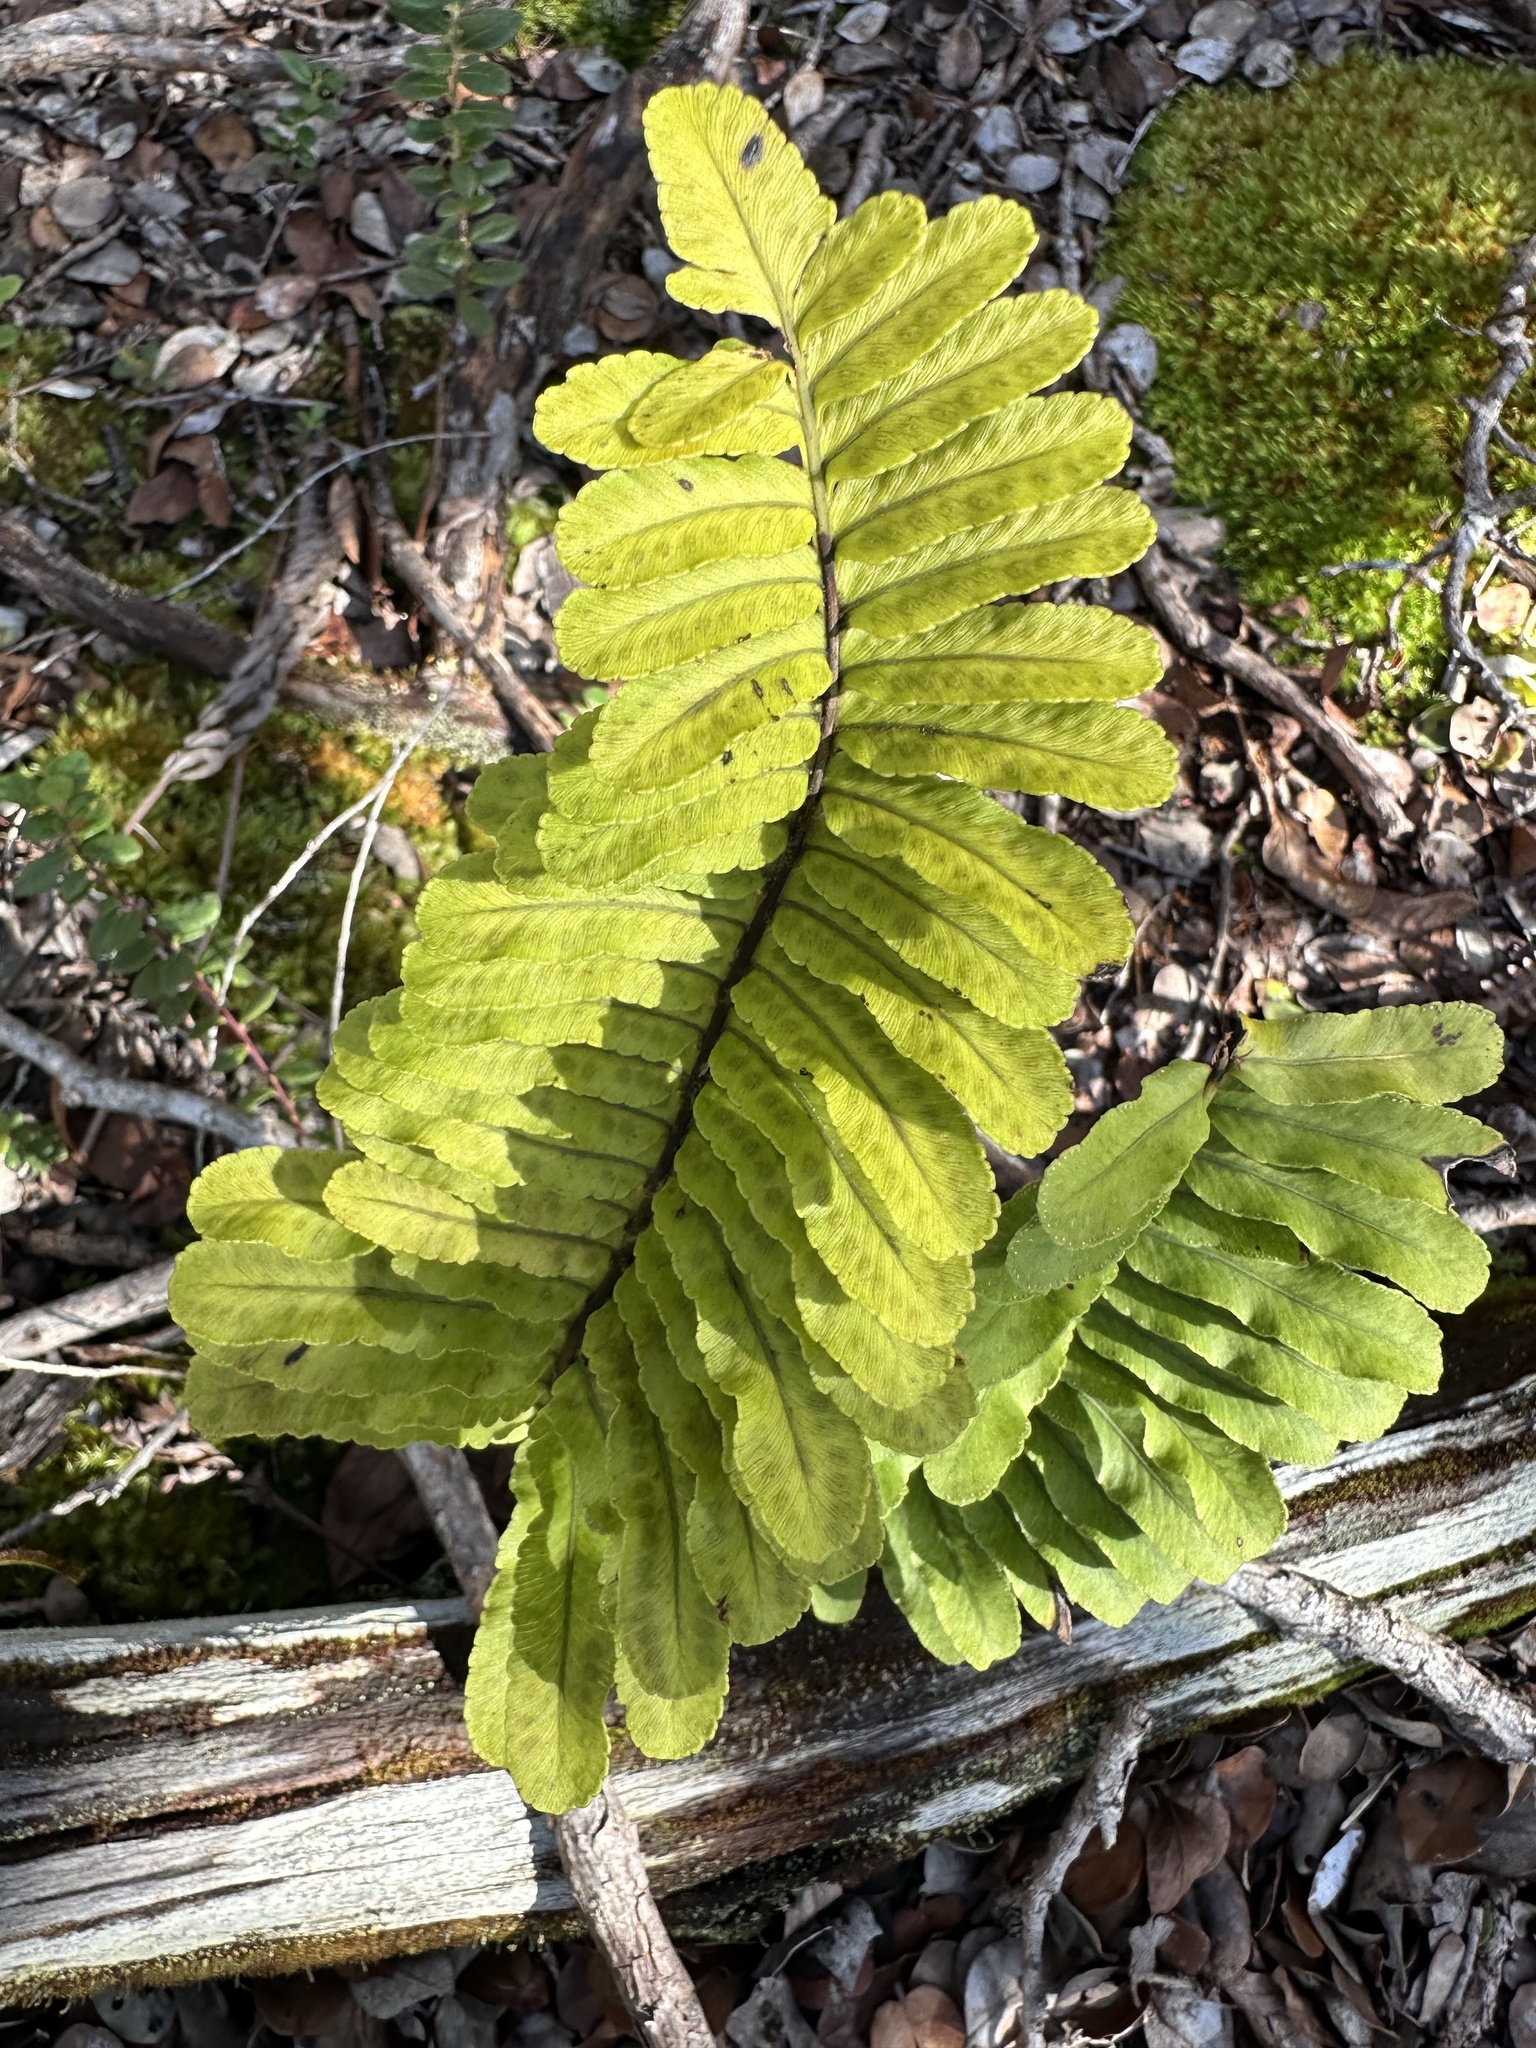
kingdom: Plantae
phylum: Tracheophyta
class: Polypodiopsida
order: Polypodiales
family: Polypodiaceae
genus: Polypodium
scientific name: Polypodium pellucidum
